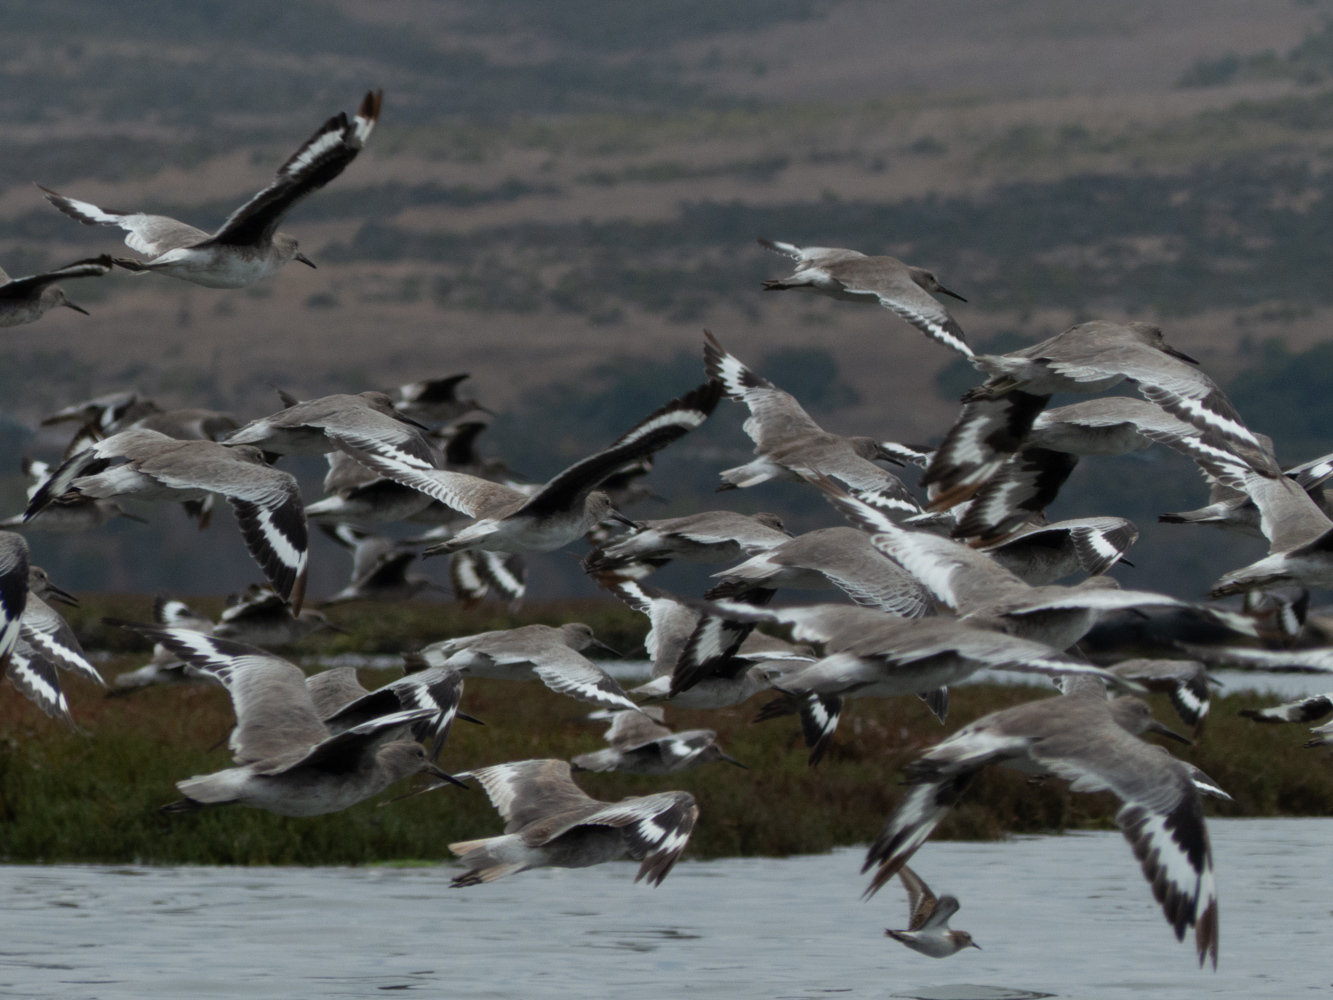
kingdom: Animalia
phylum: Chordata
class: Aves
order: Charadriiformes
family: Scolopacidae
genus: Tringa
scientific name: Tringa semipalmata
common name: Willet
